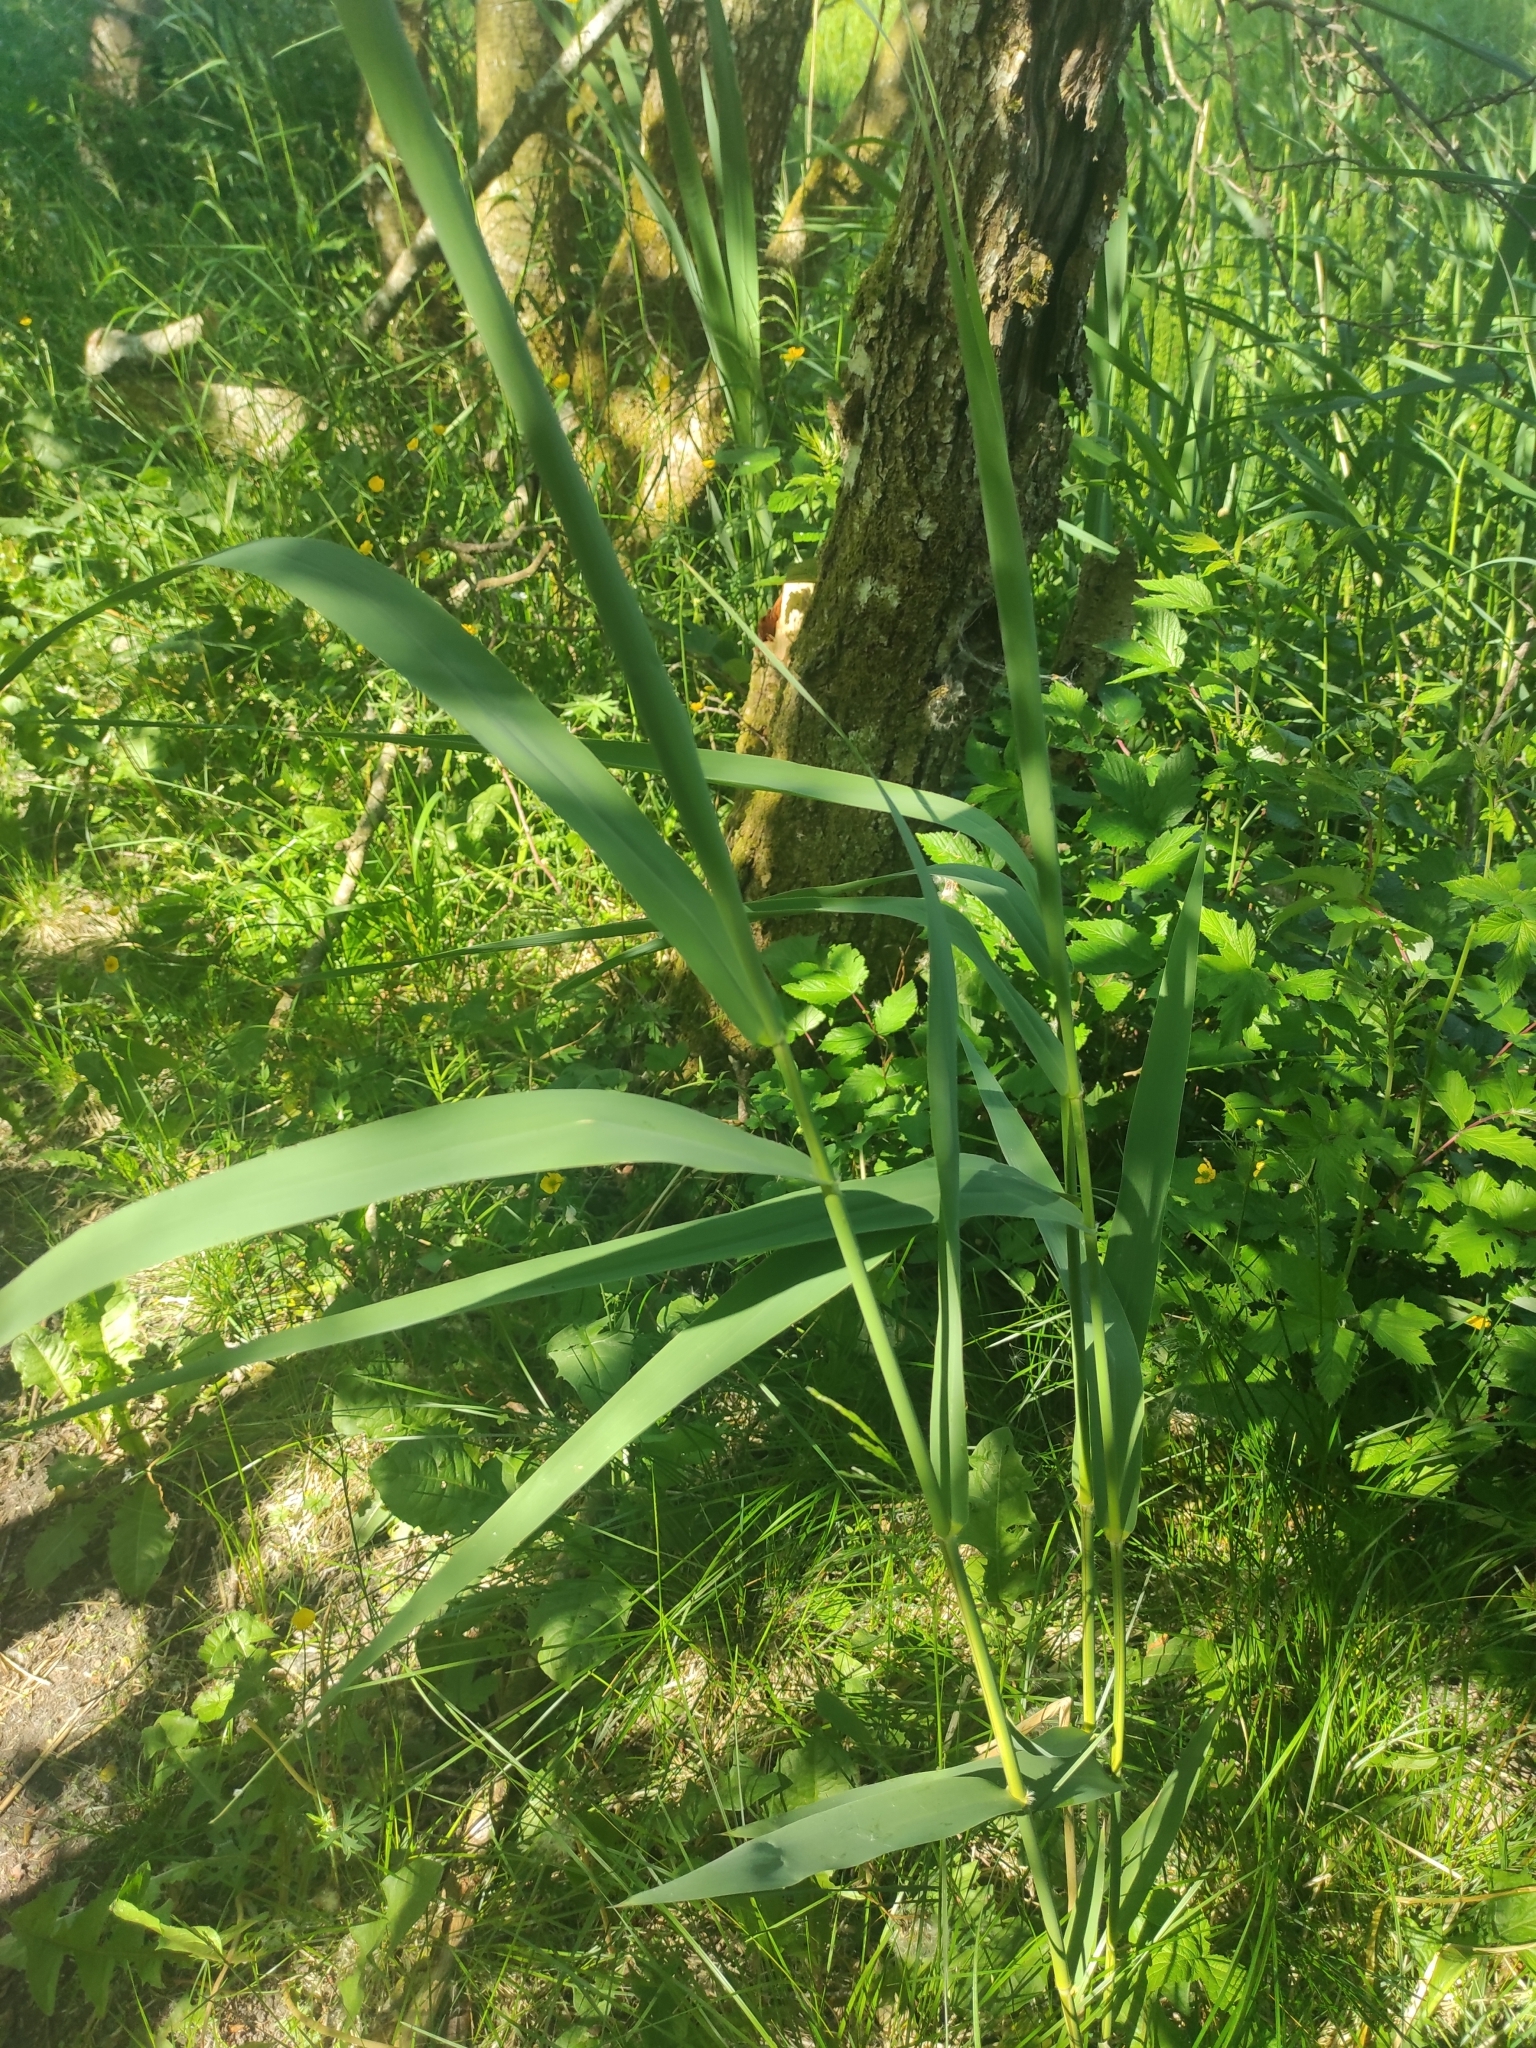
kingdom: Plantae
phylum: Tracheophyta
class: Liliopsida
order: Poales
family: Poaceae
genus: Phragmites
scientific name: Phragmites australis
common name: Common reed
